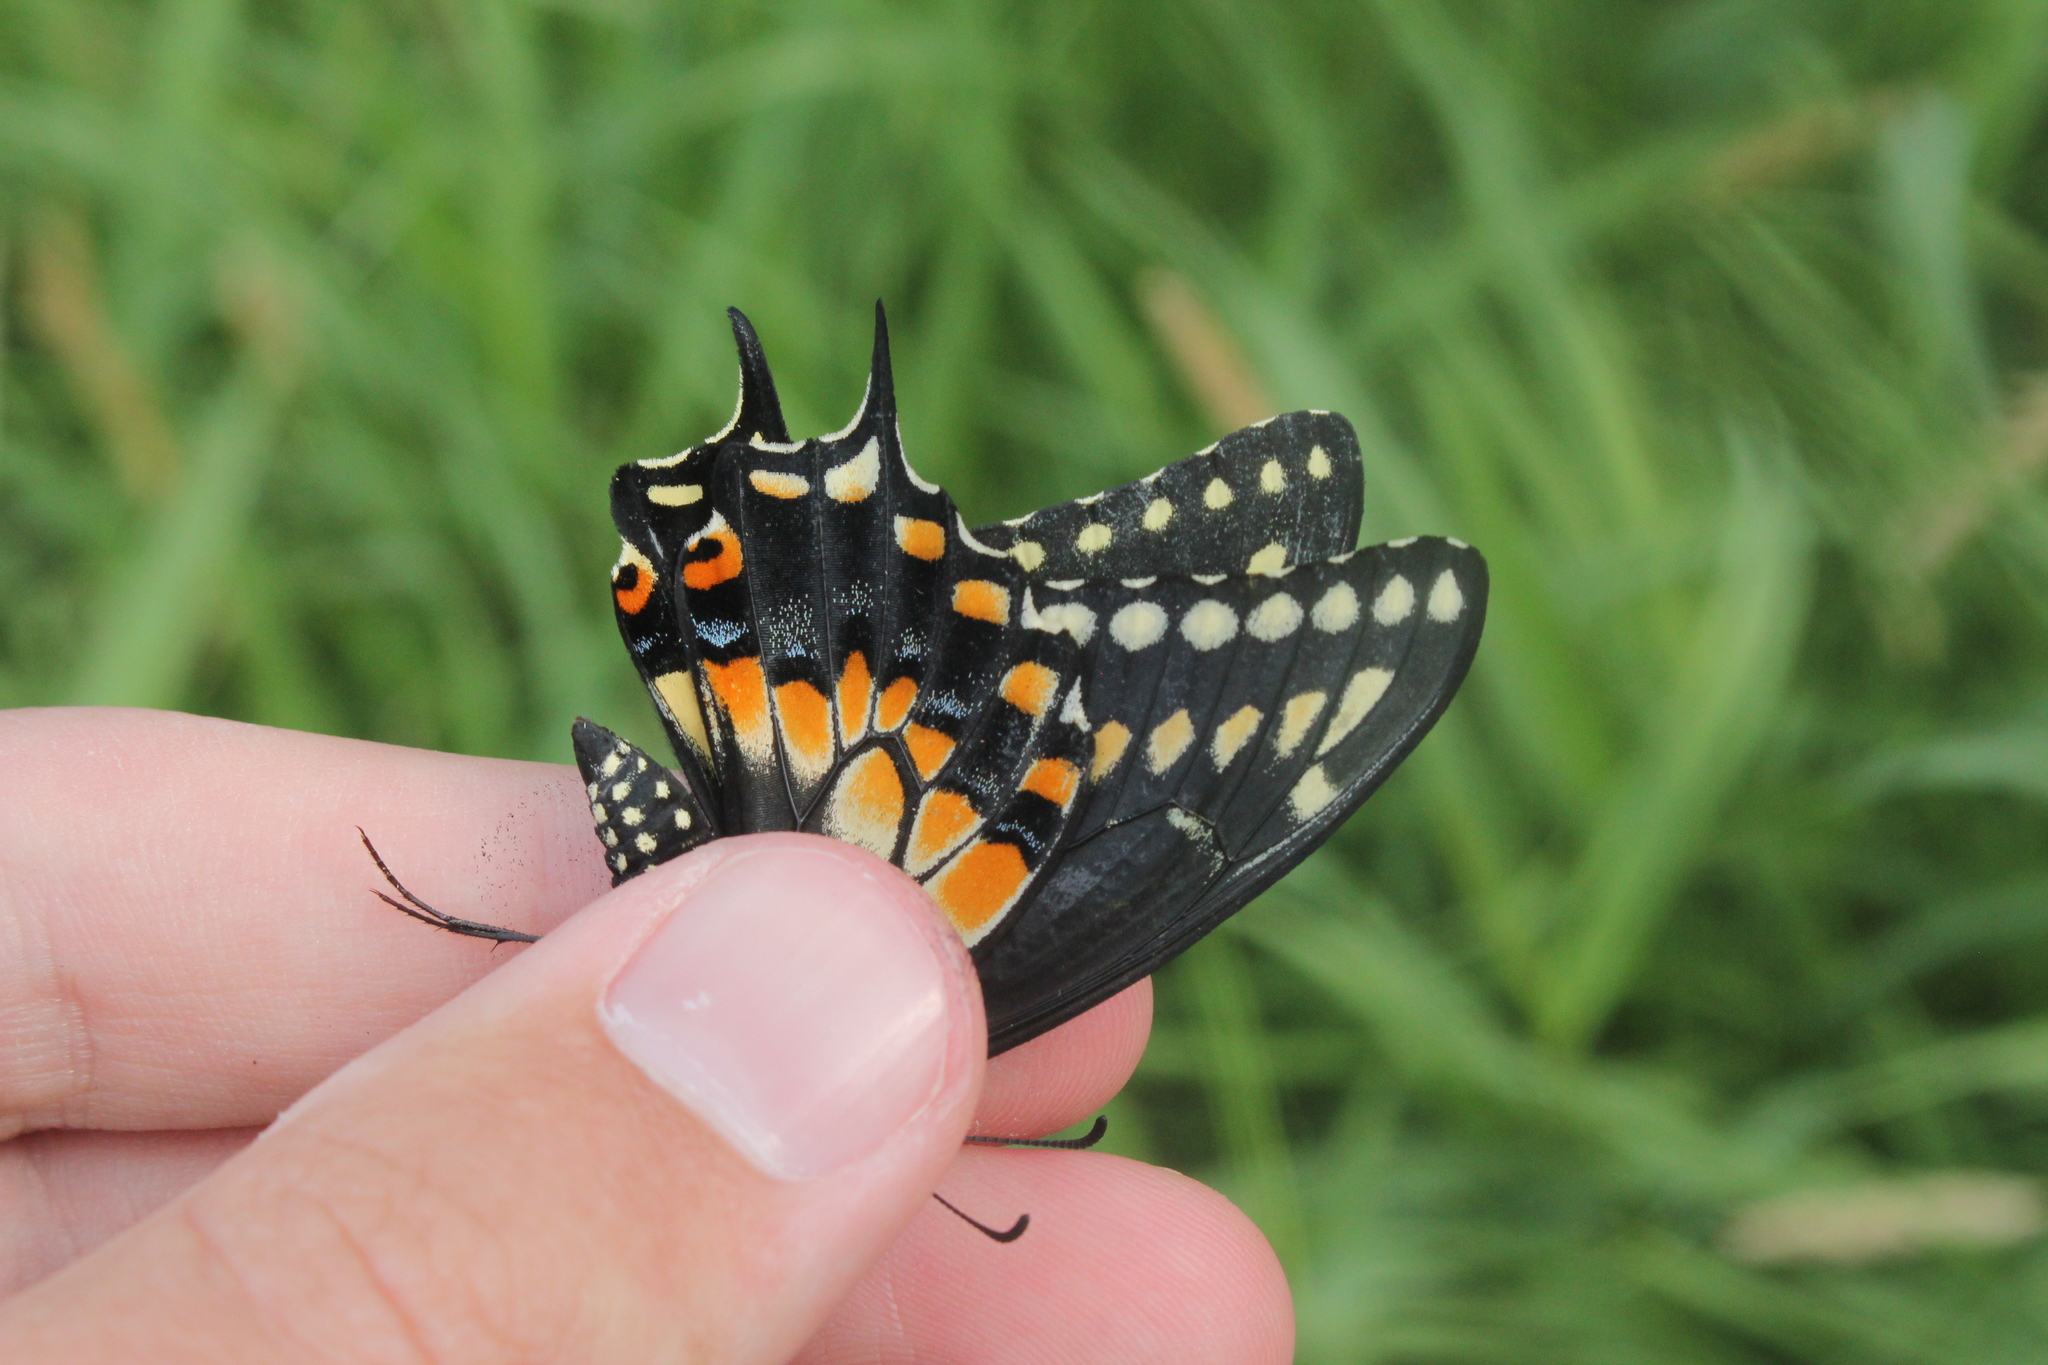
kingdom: Animalia
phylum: Arthropoda
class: Insecta
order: Lepidoptera
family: Papilionidae
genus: Papilio
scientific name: Papilio polyxenes
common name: Black swallowtail
